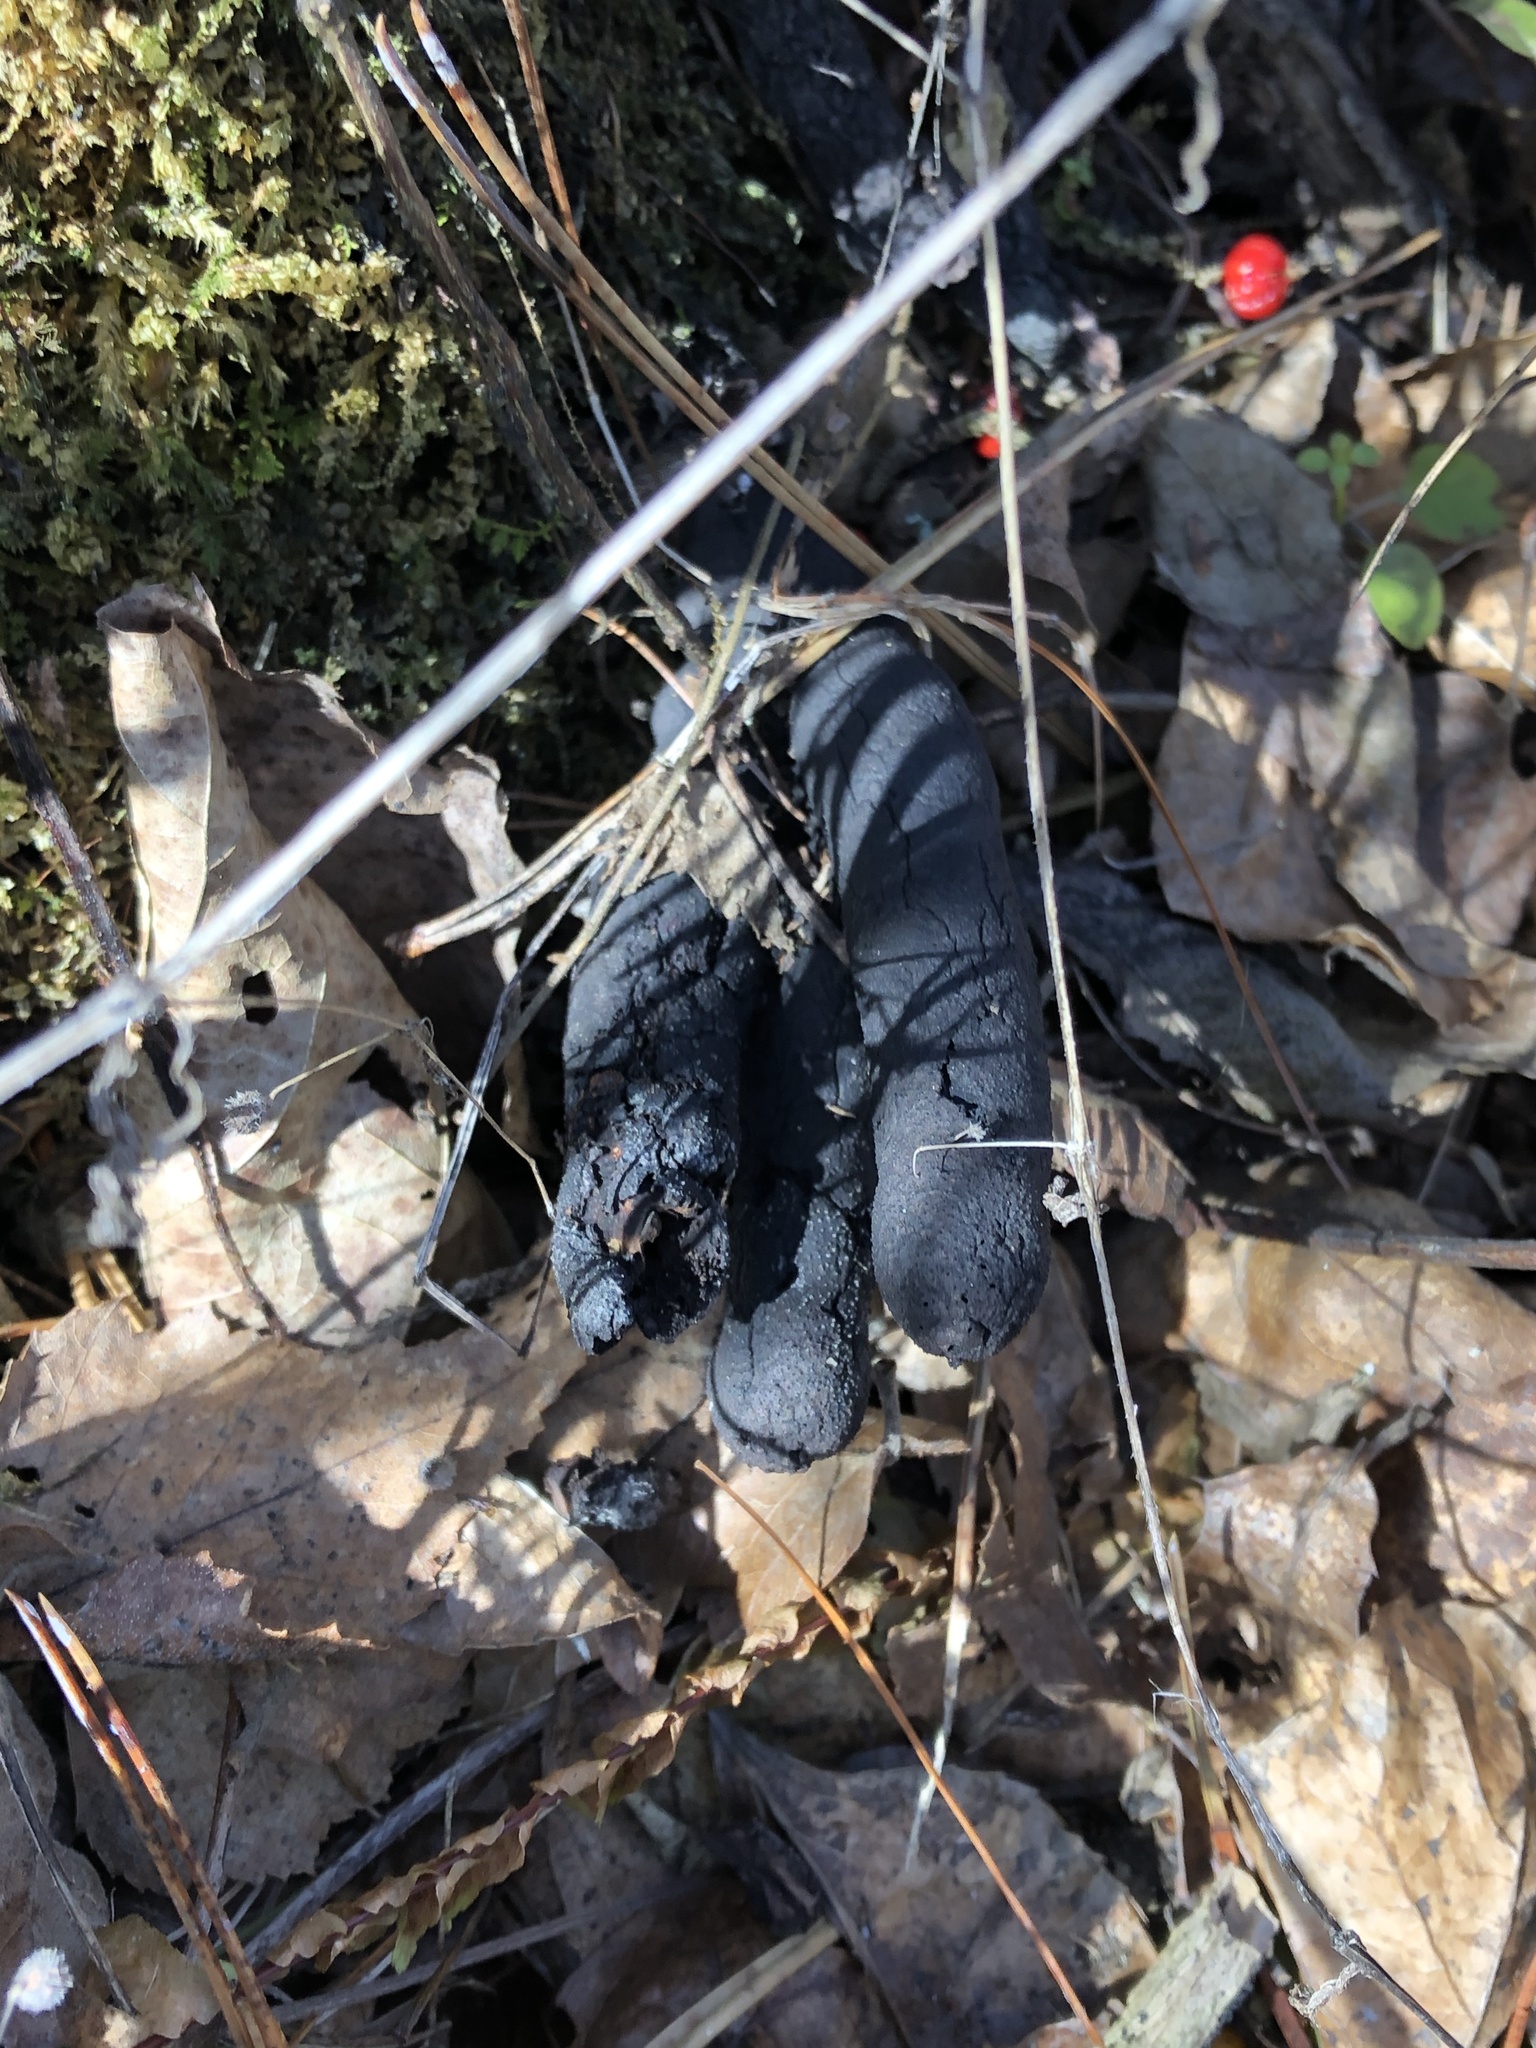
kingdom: Fungi
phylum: Ascomycota
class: Sordariomycetes
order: Xylariales
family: Xylariaceae
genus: Xylaria
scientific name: Xylaria polymorpha
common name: Dead man's fingers
